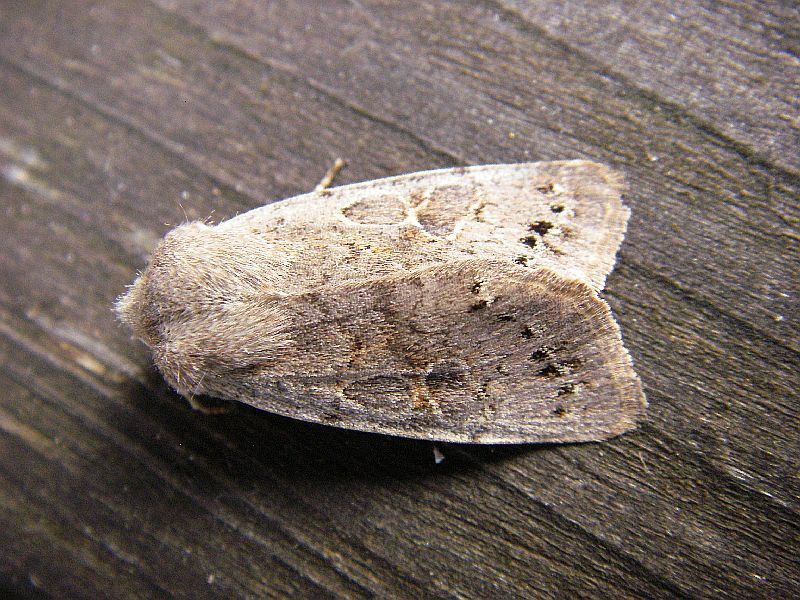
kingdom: Animalia
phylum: Arthropoda
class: Insecta
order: Lepidoptera
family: Noctuidae
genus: Orthosia
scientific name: Orthosia populeti
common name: Lead-coloured drab
